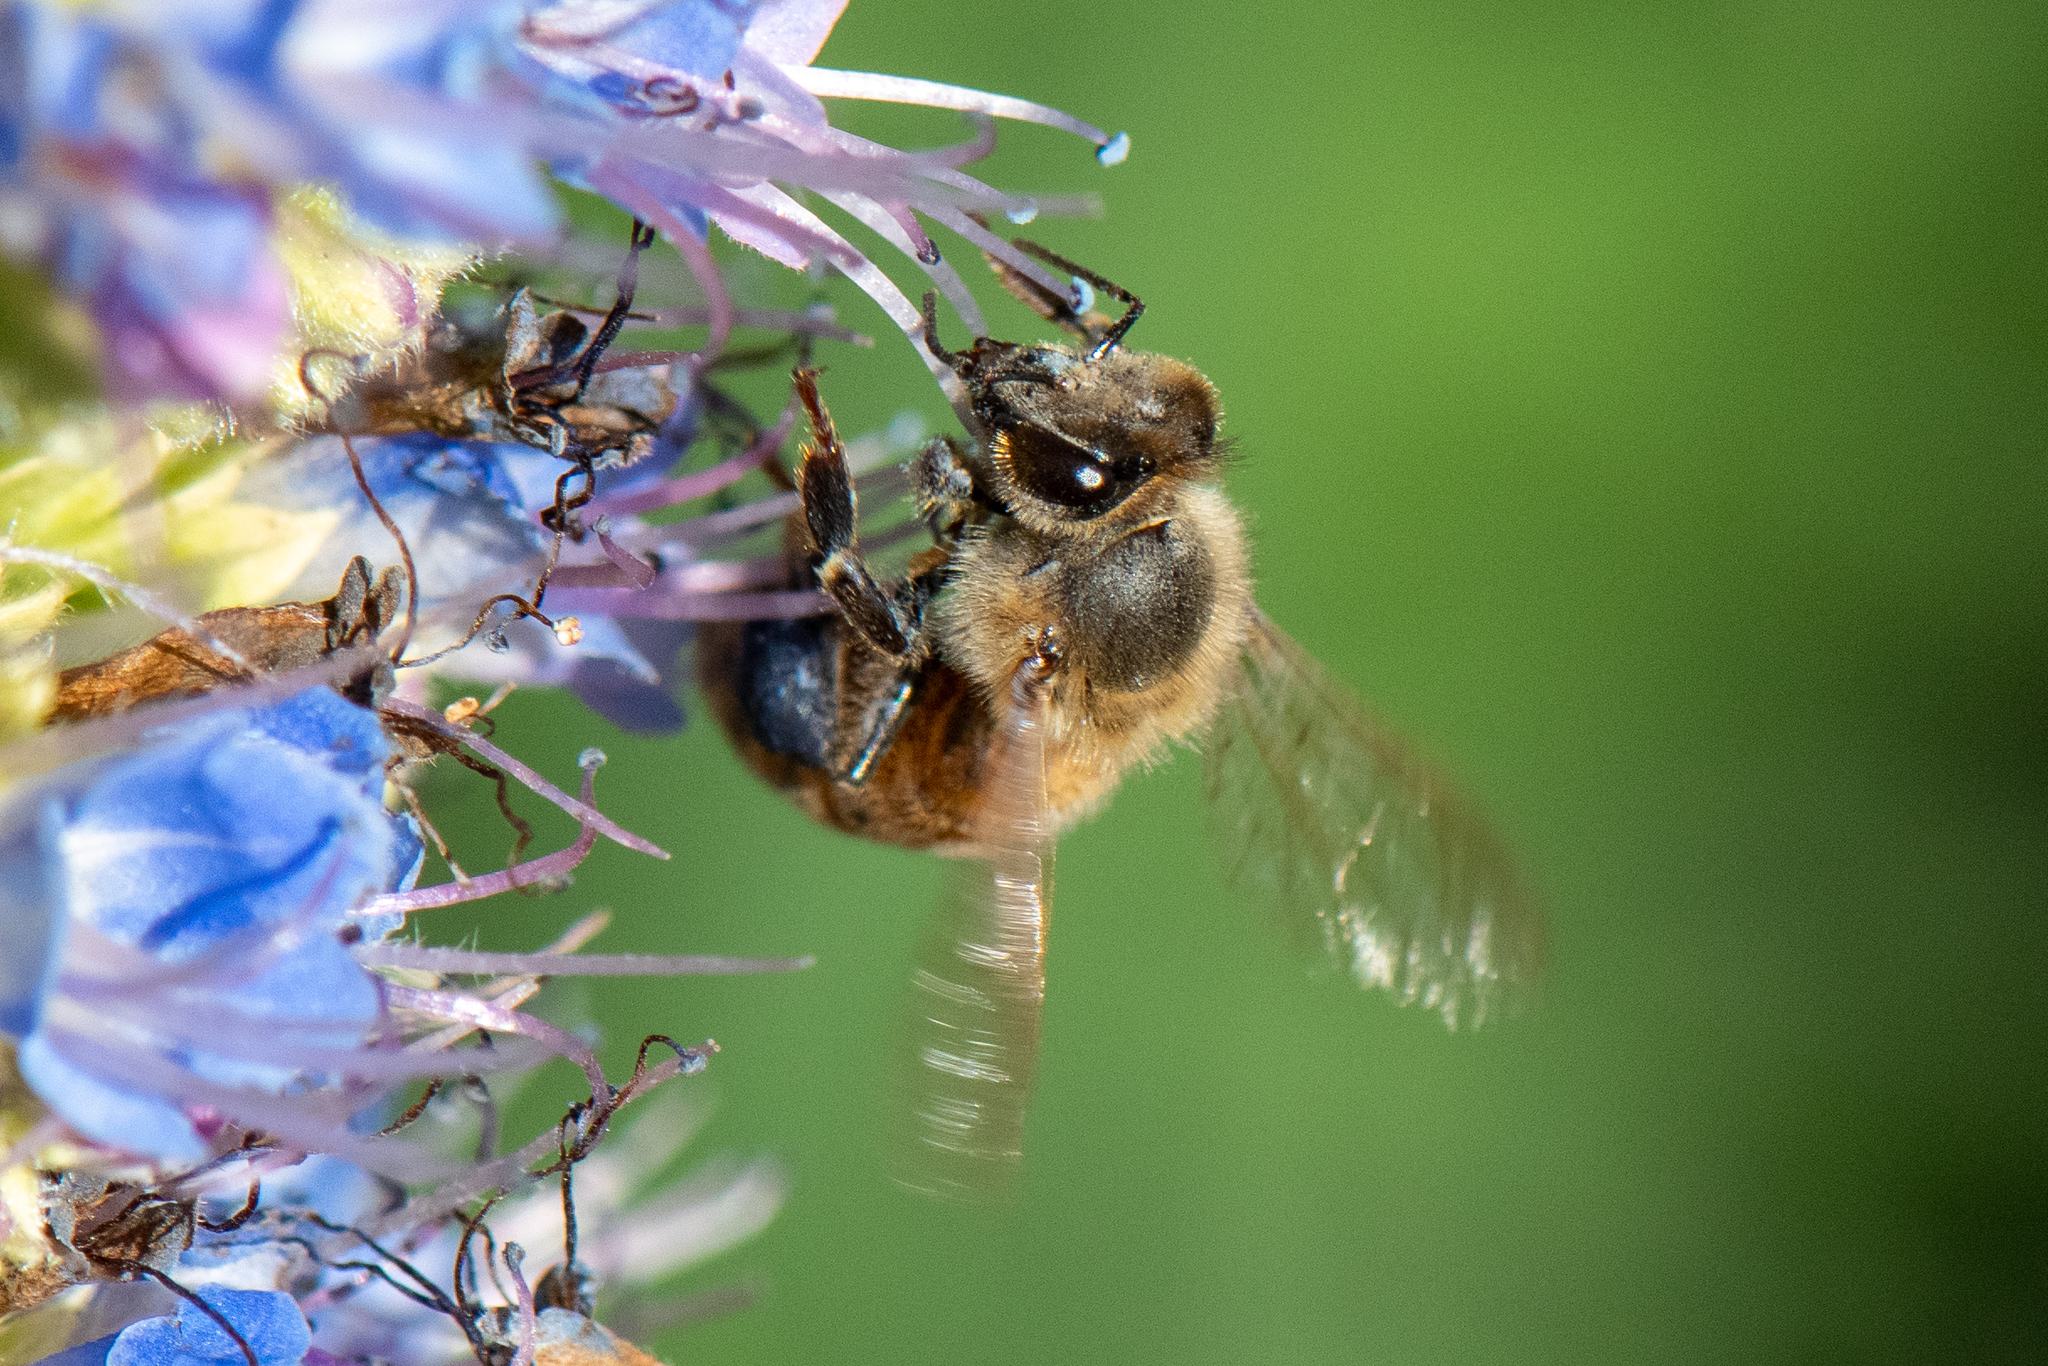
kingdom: Animalia
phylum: Arthropoda
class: Insecta
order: Hymenoptera
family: Apidae
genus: Apis
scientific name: Apis mellifera
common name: Honey bee
